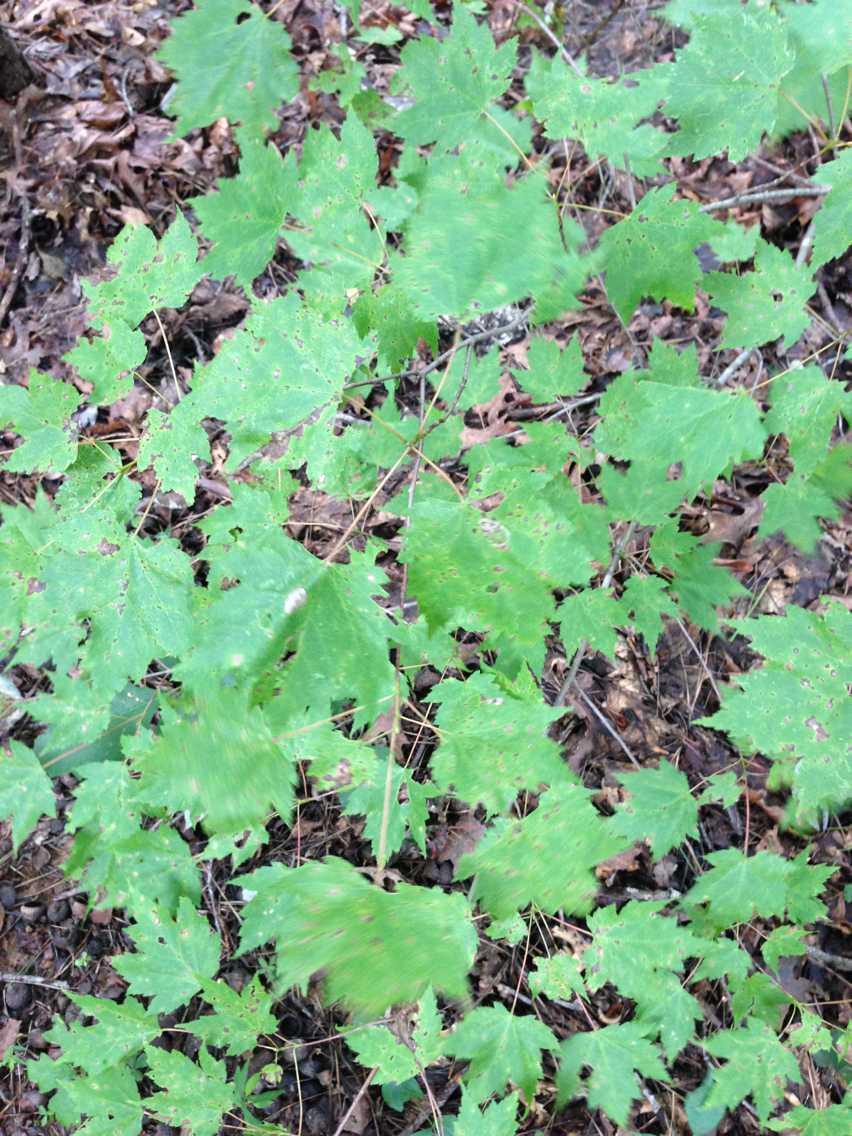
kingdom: Plantae
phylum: Tracheophyta
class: Magnoliopsida
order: Sapindales
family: Sapindaceae
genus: Acer
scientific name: Acer rubrum
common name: Red maple
